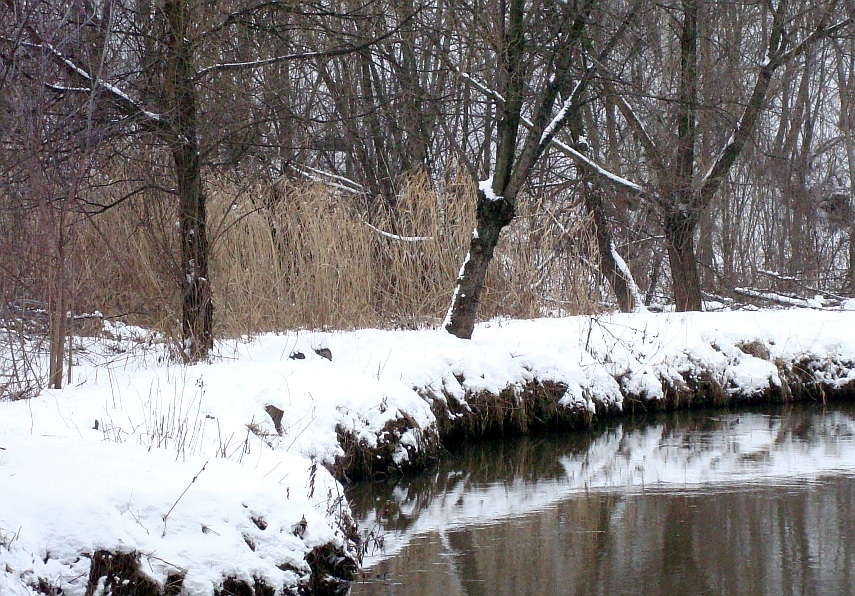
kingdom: Plantae
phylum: Tracheophyta
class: Liliopsida
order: Poales
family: Poaceae
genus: Phragmites
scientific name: Phragmites australis
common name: Common reed
